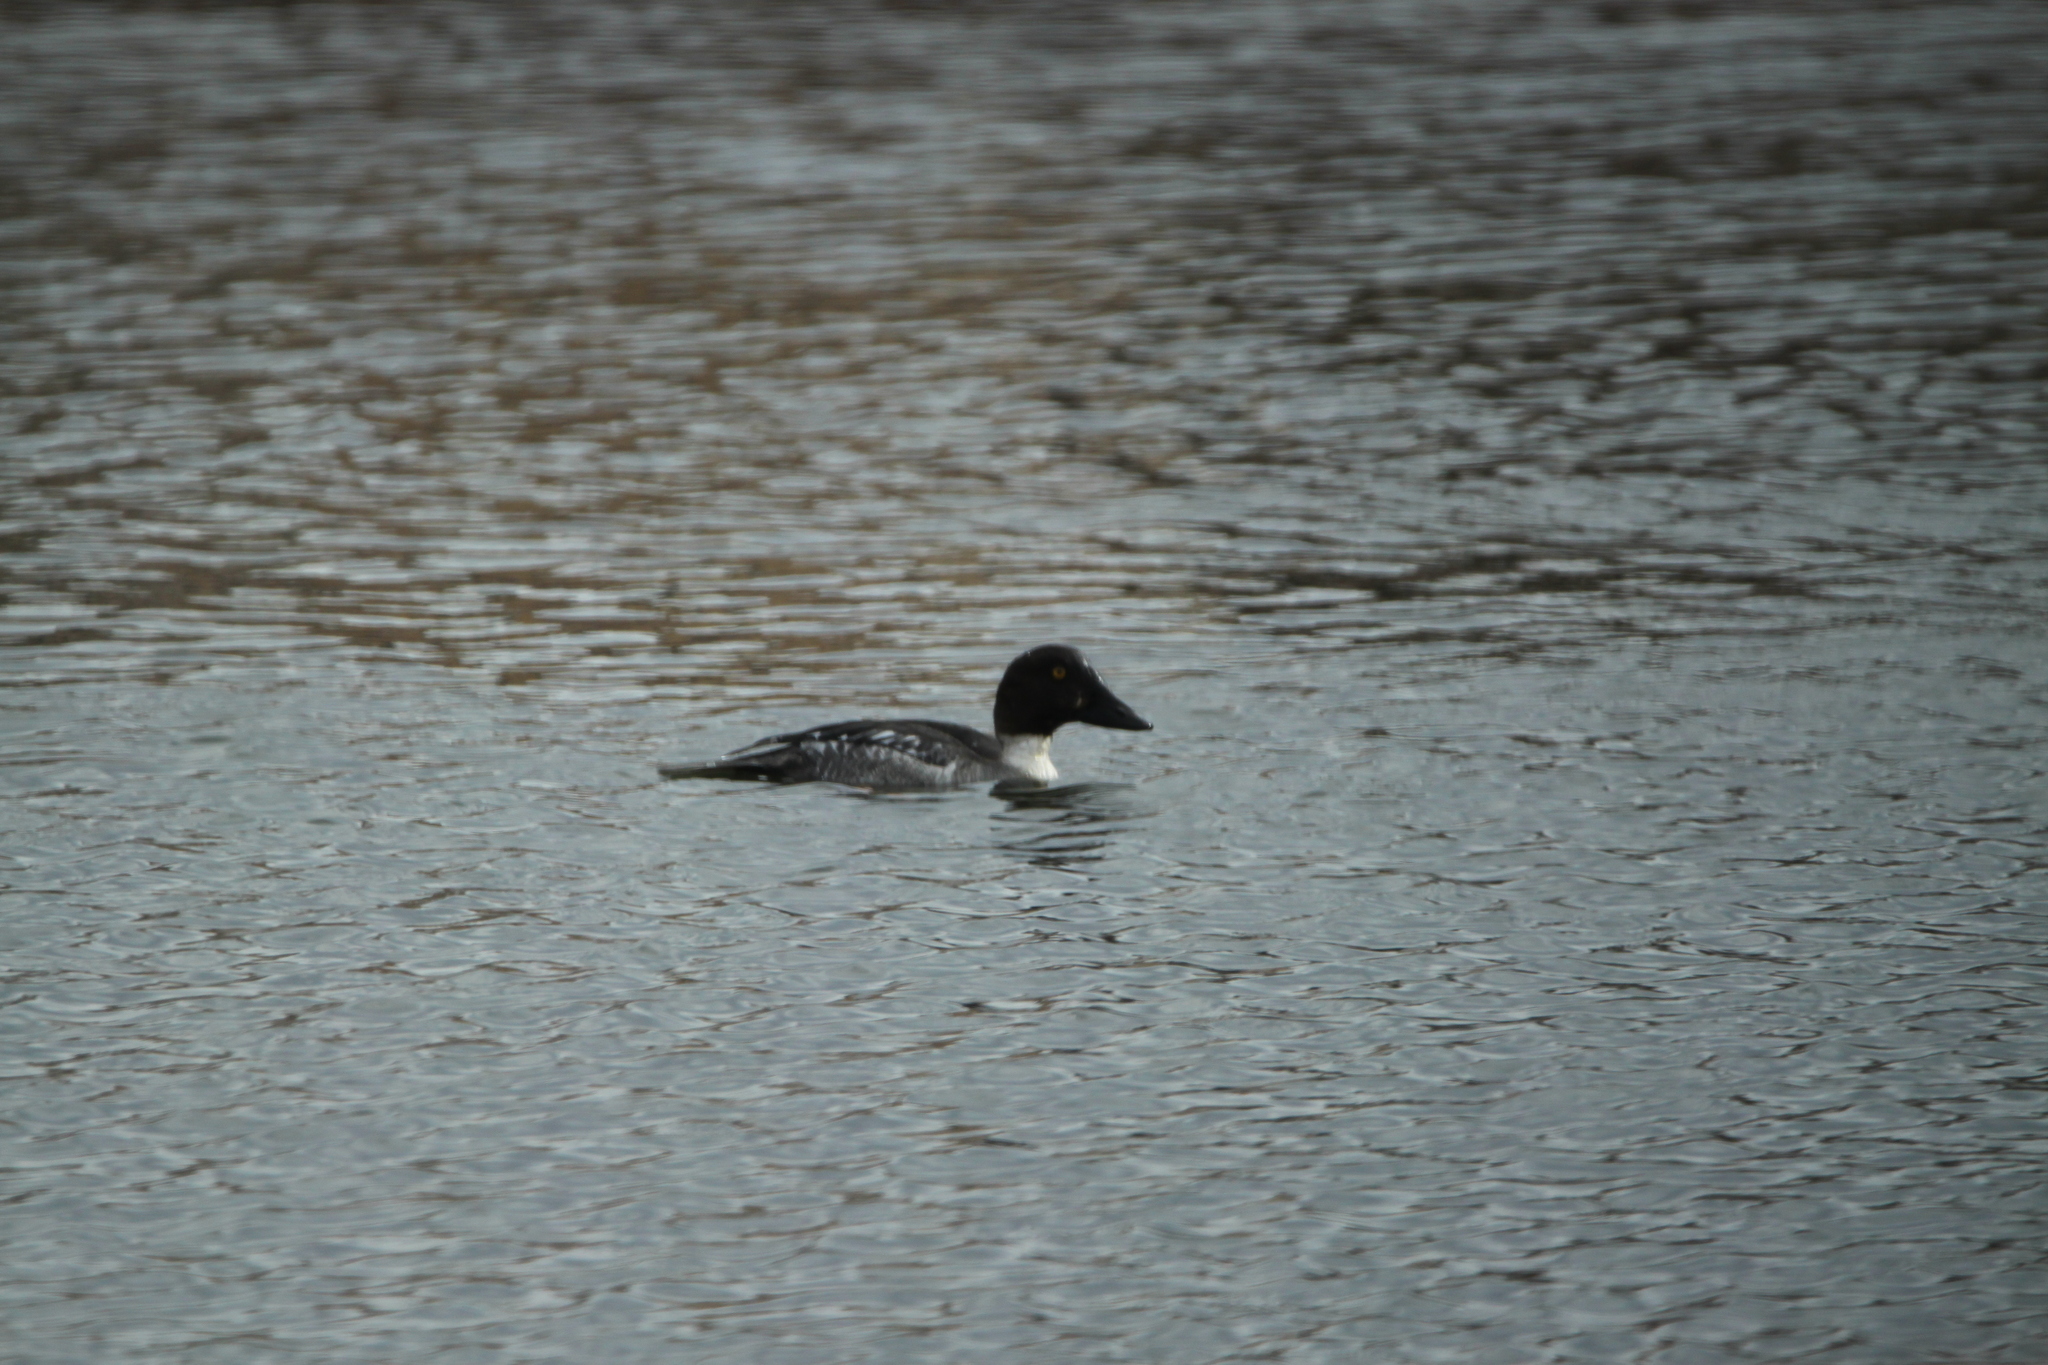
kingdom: Animalia
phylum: Chordata
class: Aves
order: Anseriformes
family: Anatidae
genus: Bucephala
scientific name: Bucephala clangula
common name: Common goldeneye
